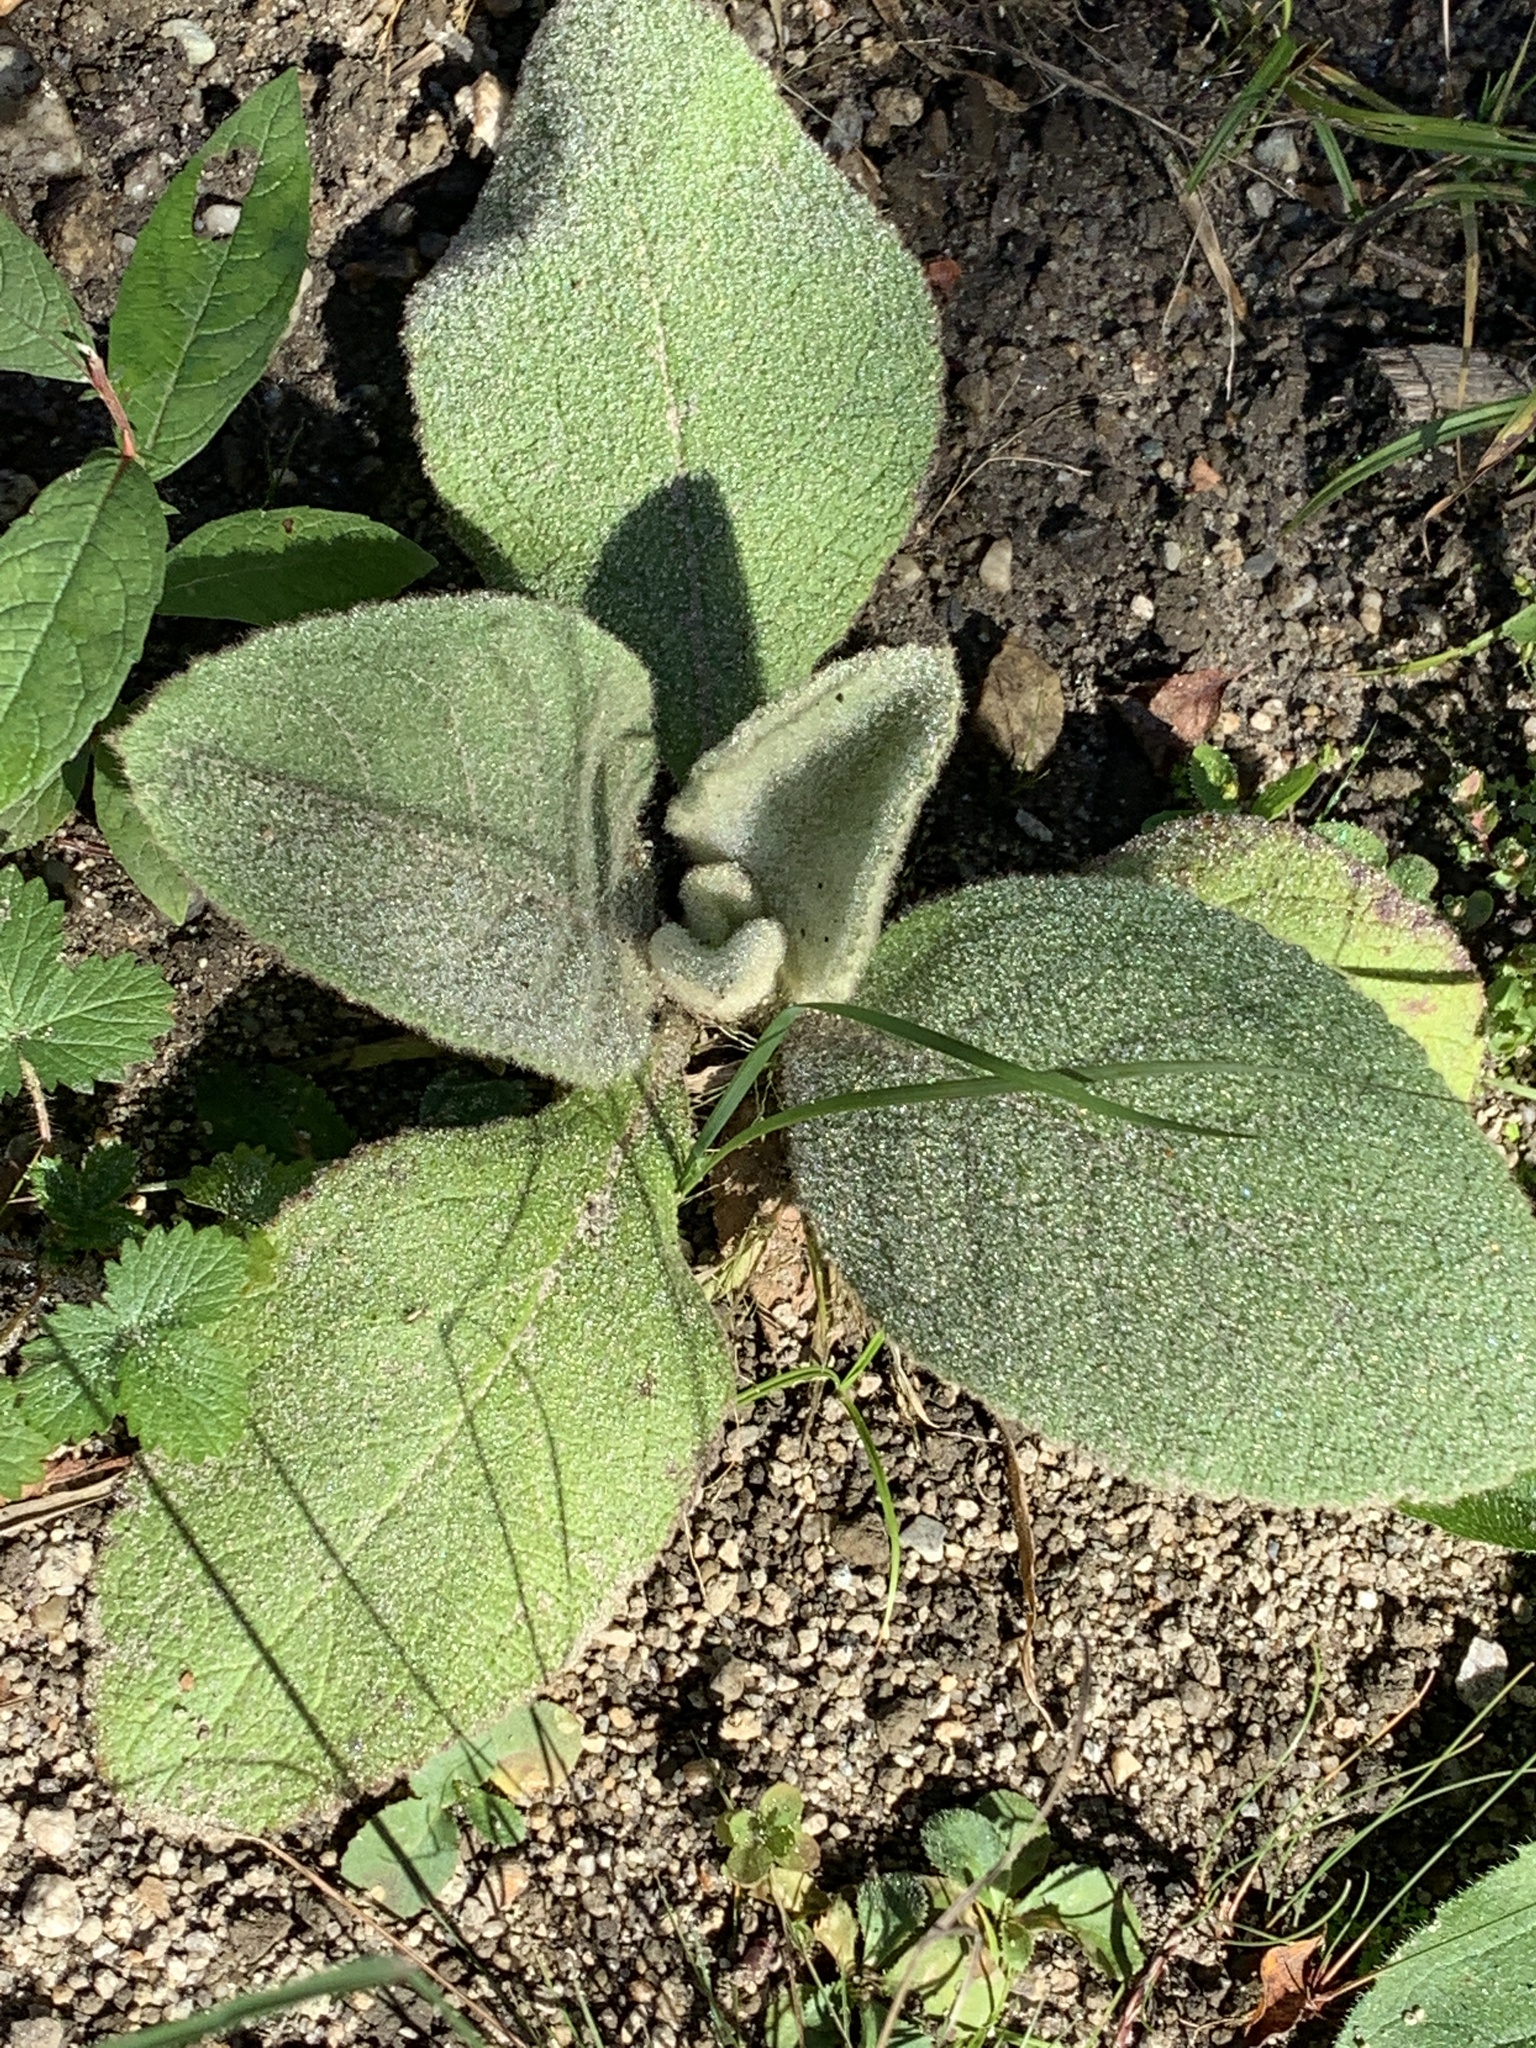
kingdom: Plantae
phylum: Tracheophyta
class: Magnoliopsida
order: Lamiales
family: Scrophulariaceae
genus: Verbascum
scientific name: Verbascum thapsus
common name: Common mullein
